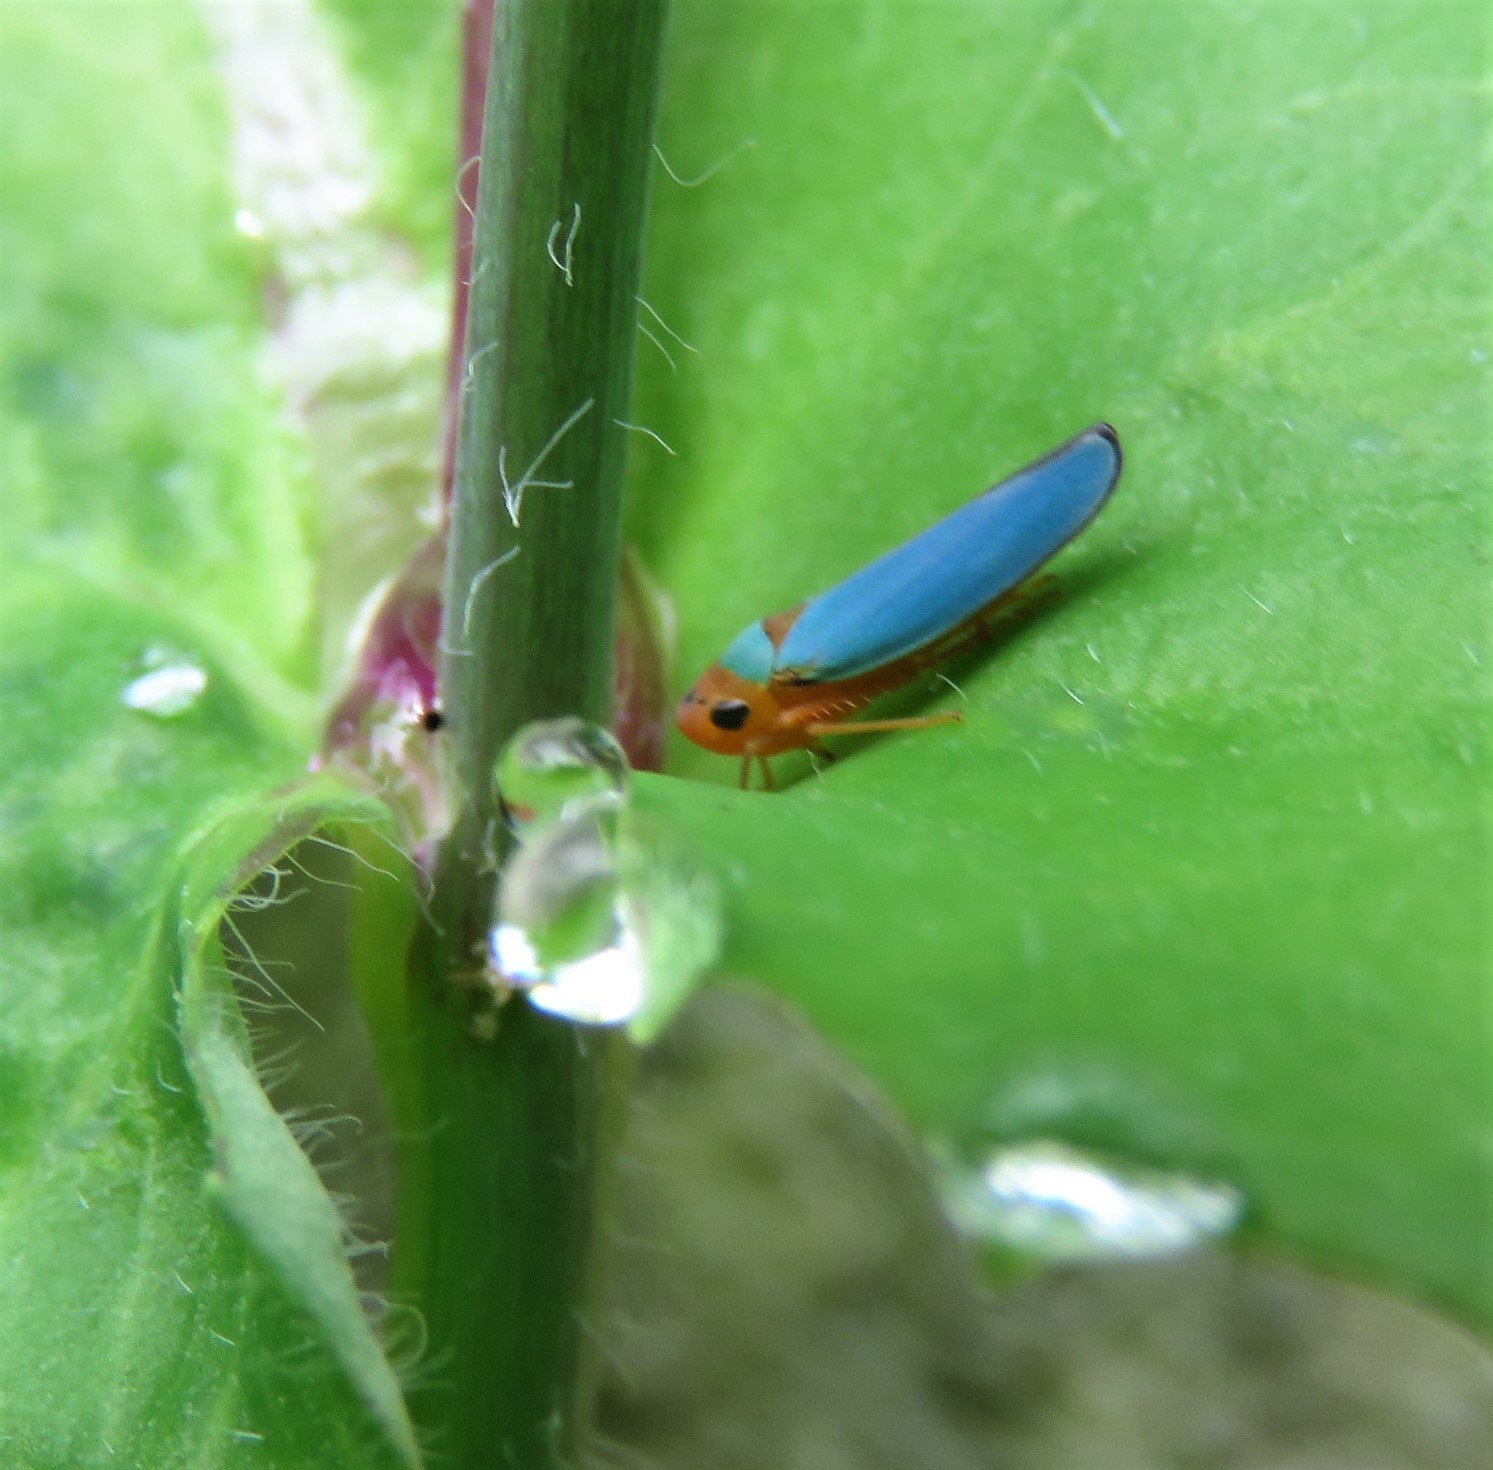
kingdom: Animalia
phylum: Arthropoda
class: Insecta
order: Hemiptera
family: Cicadellidae
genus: Macunolla
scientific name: Macunolla ventralis
